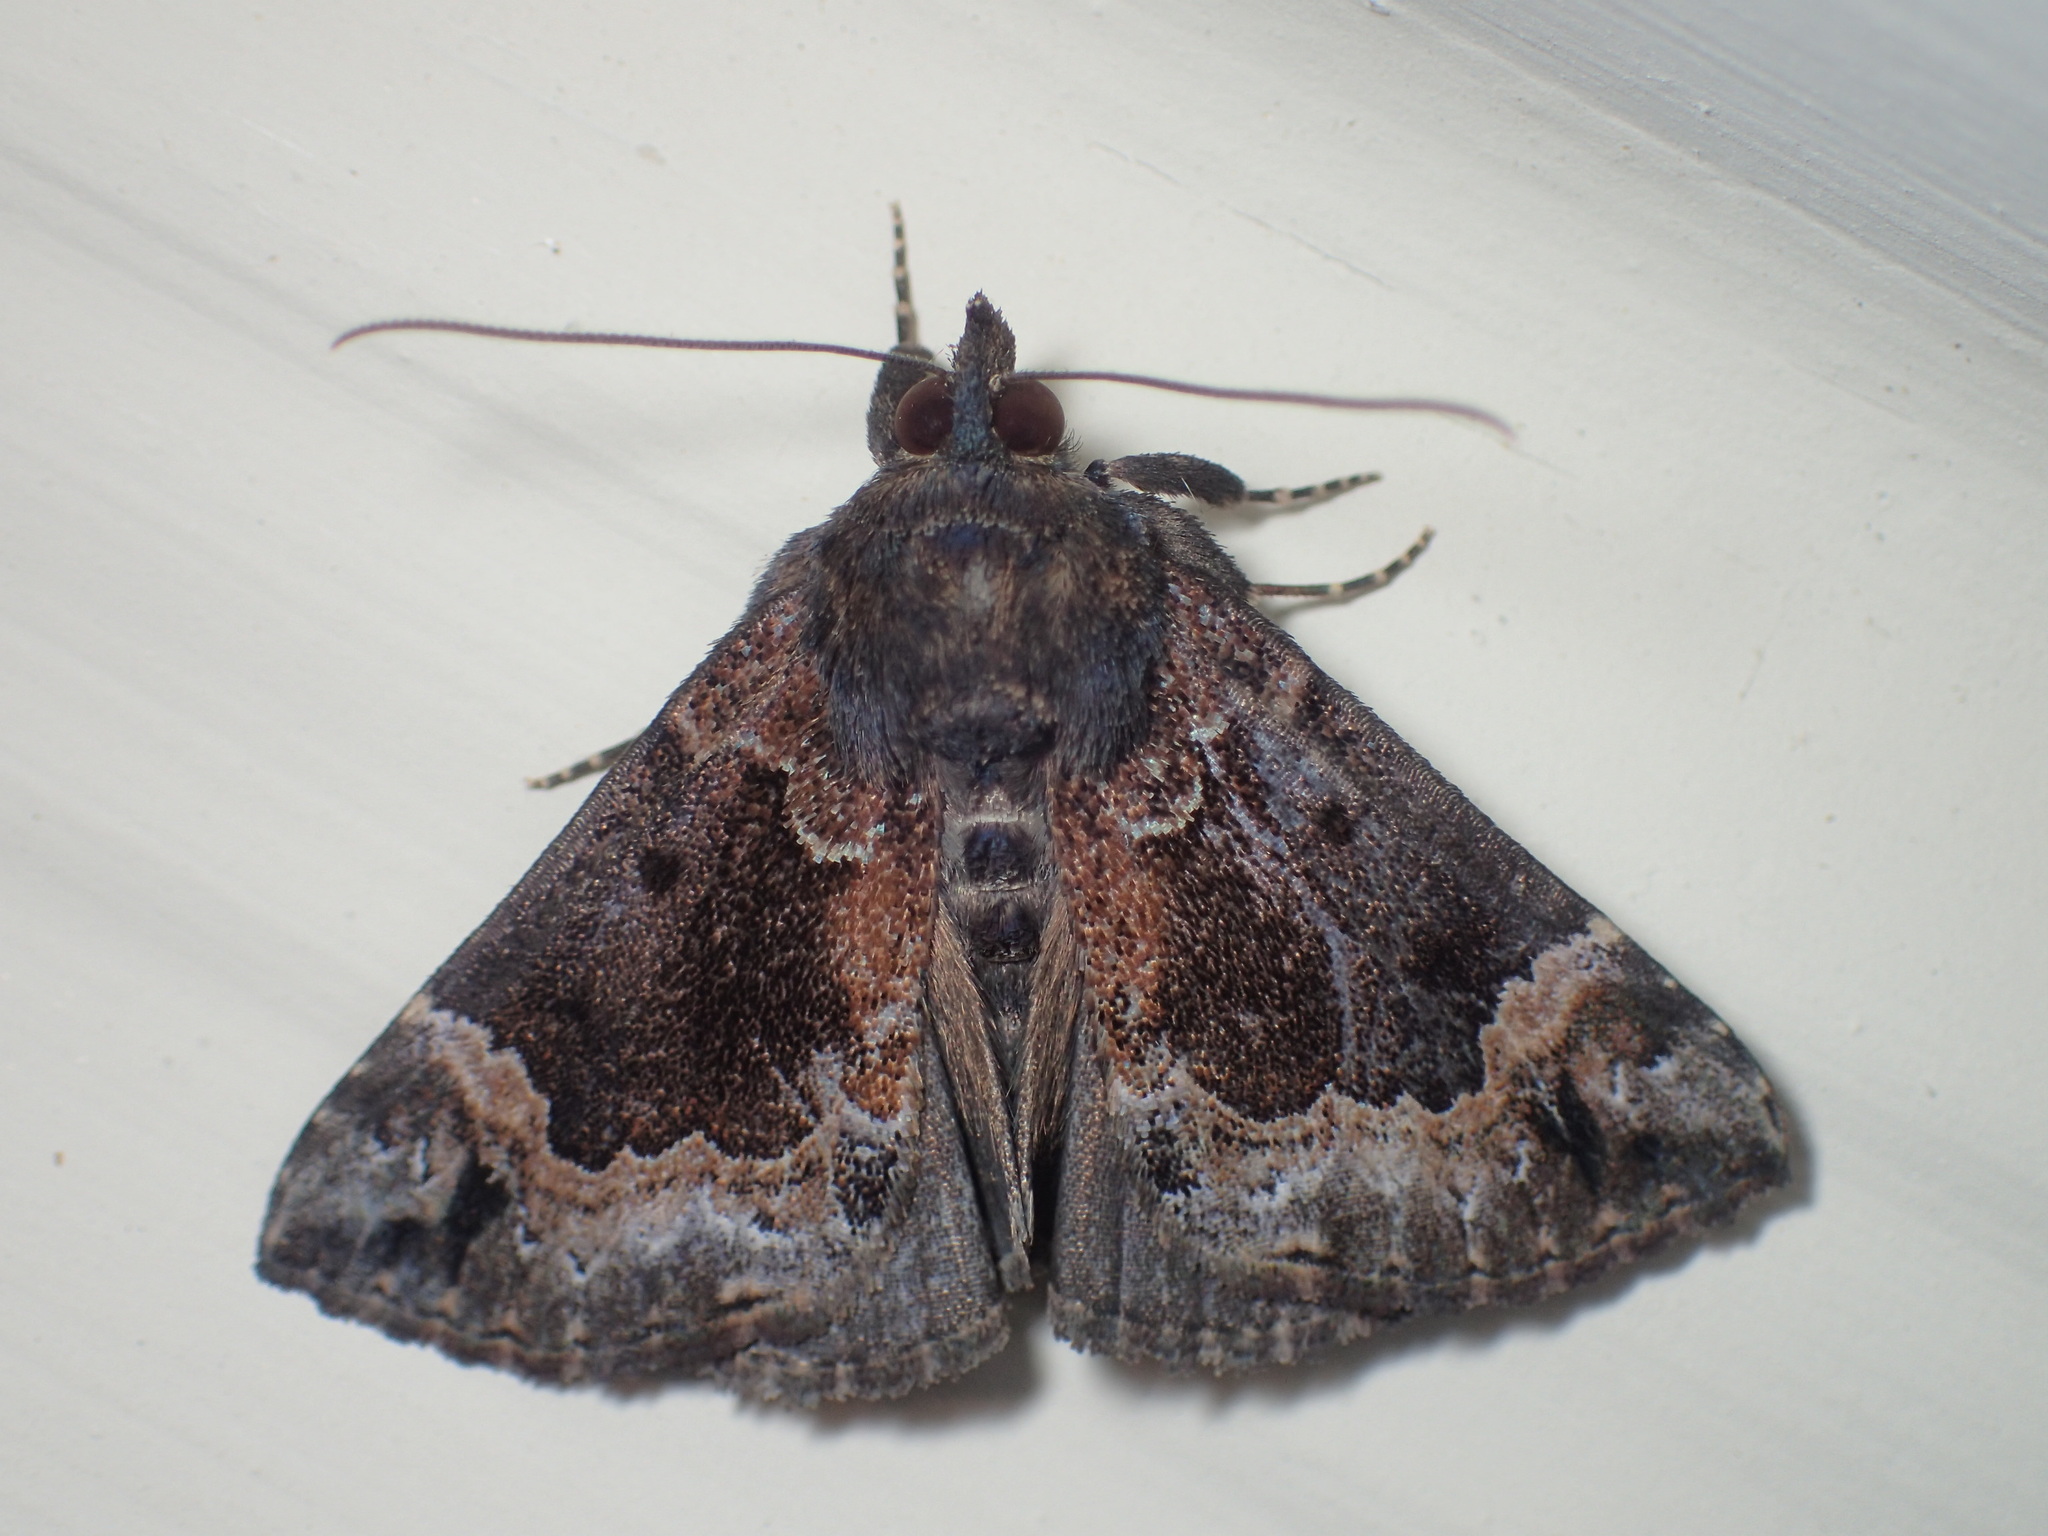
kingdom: Animalia
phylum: Arthropoda
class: Insecta
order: Lepidoptera
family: Erebidae
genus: Hypena
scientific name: Hypena palparia
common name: Mottled bomolocha moth
